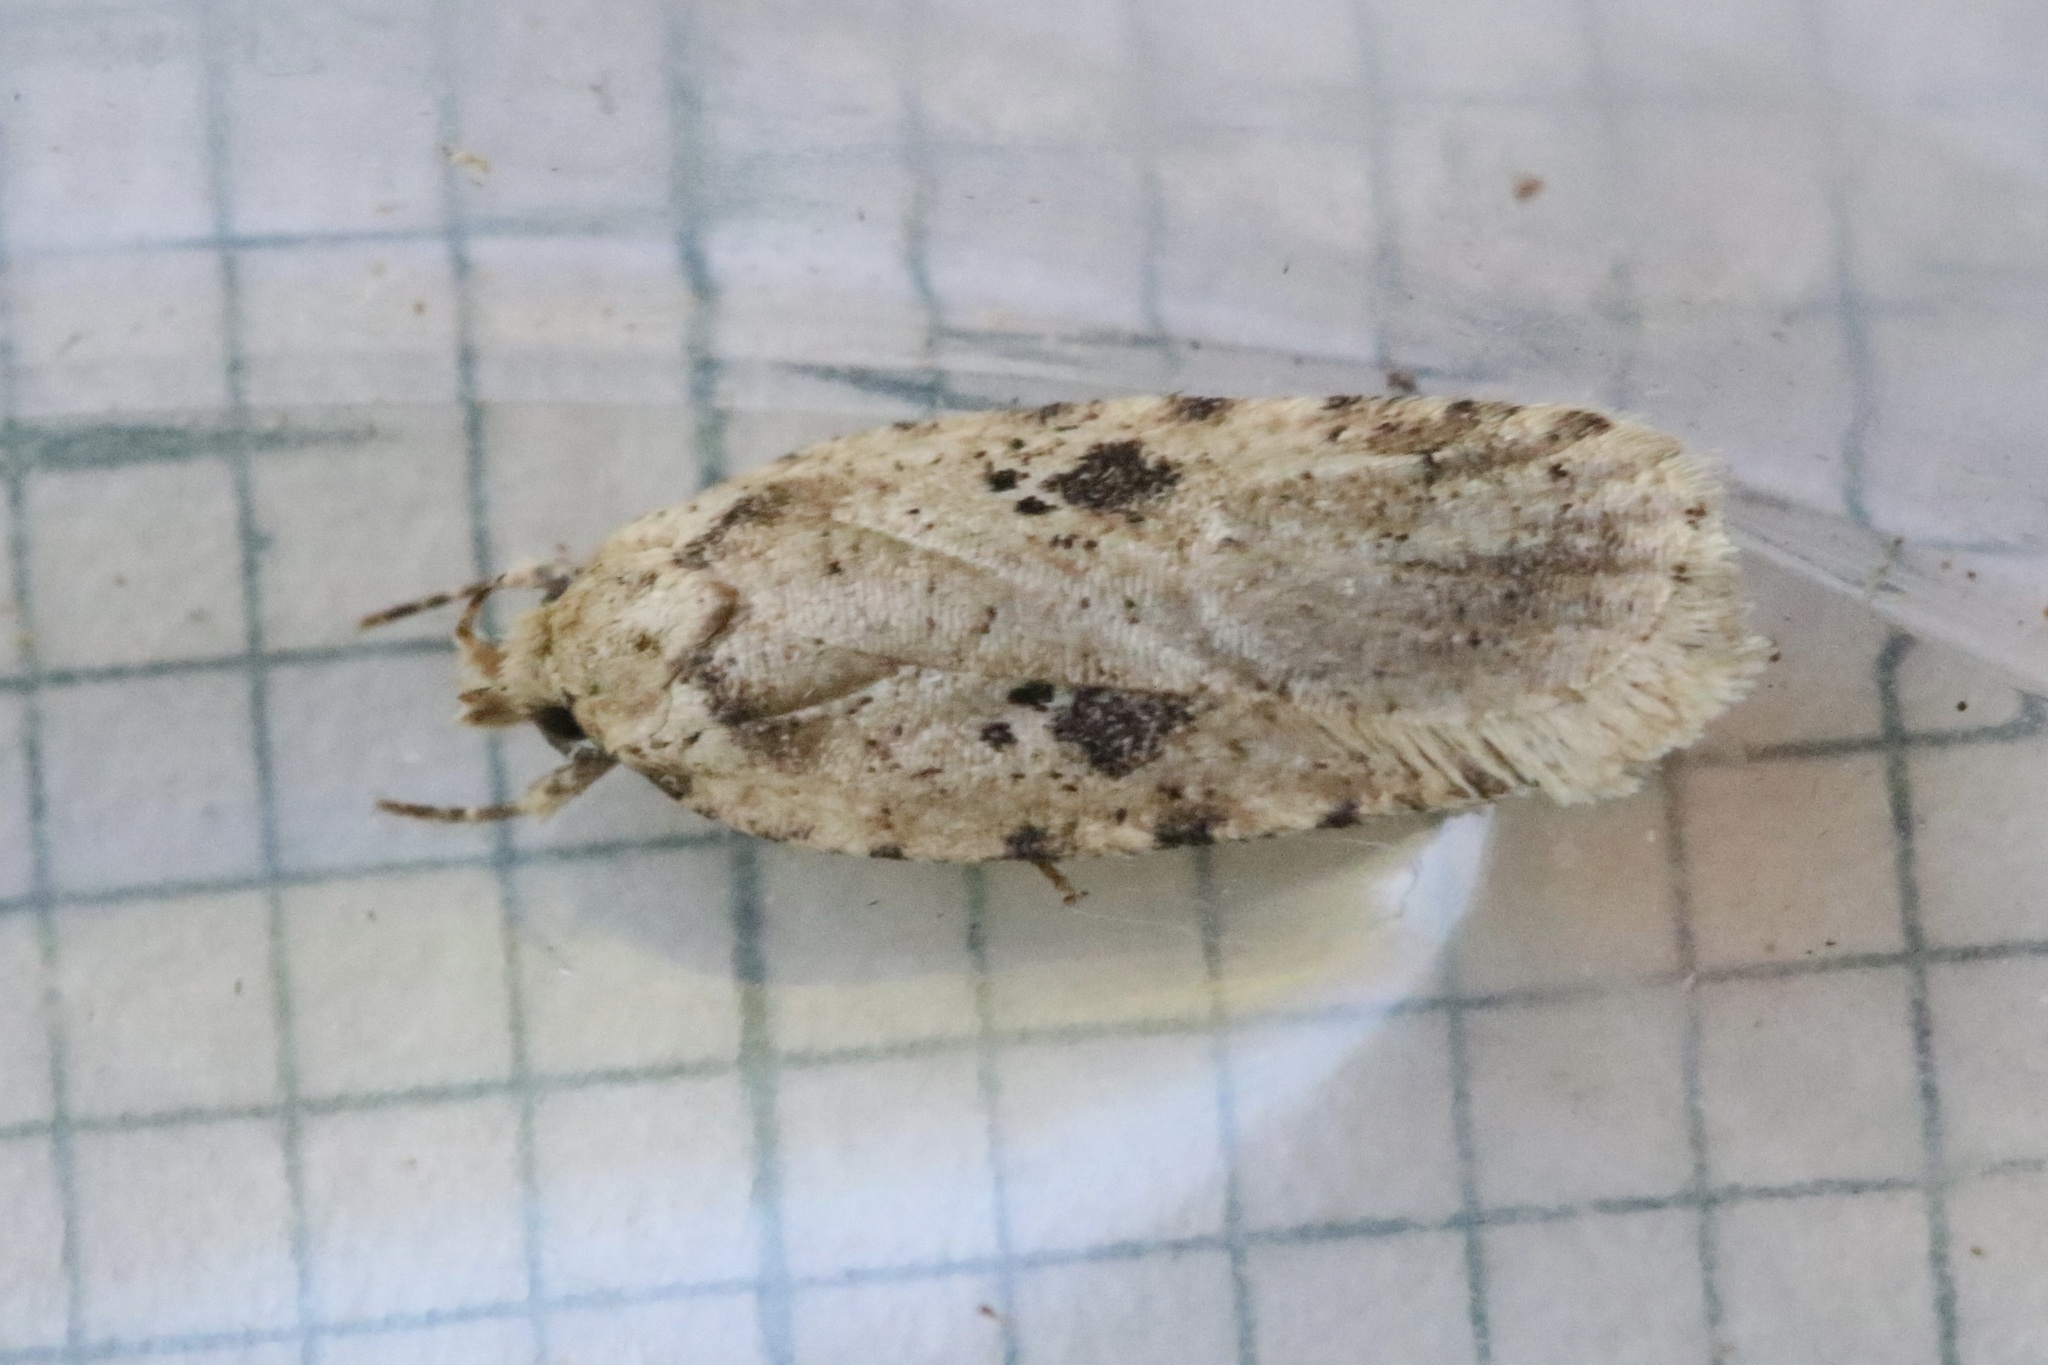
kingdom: Animalia
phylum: Arthropoda
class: Insecta
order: Lepidoptera
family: Depressariidae
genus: Agonopterix
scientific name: Agonopterix arenella
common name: Brindled flat-body
